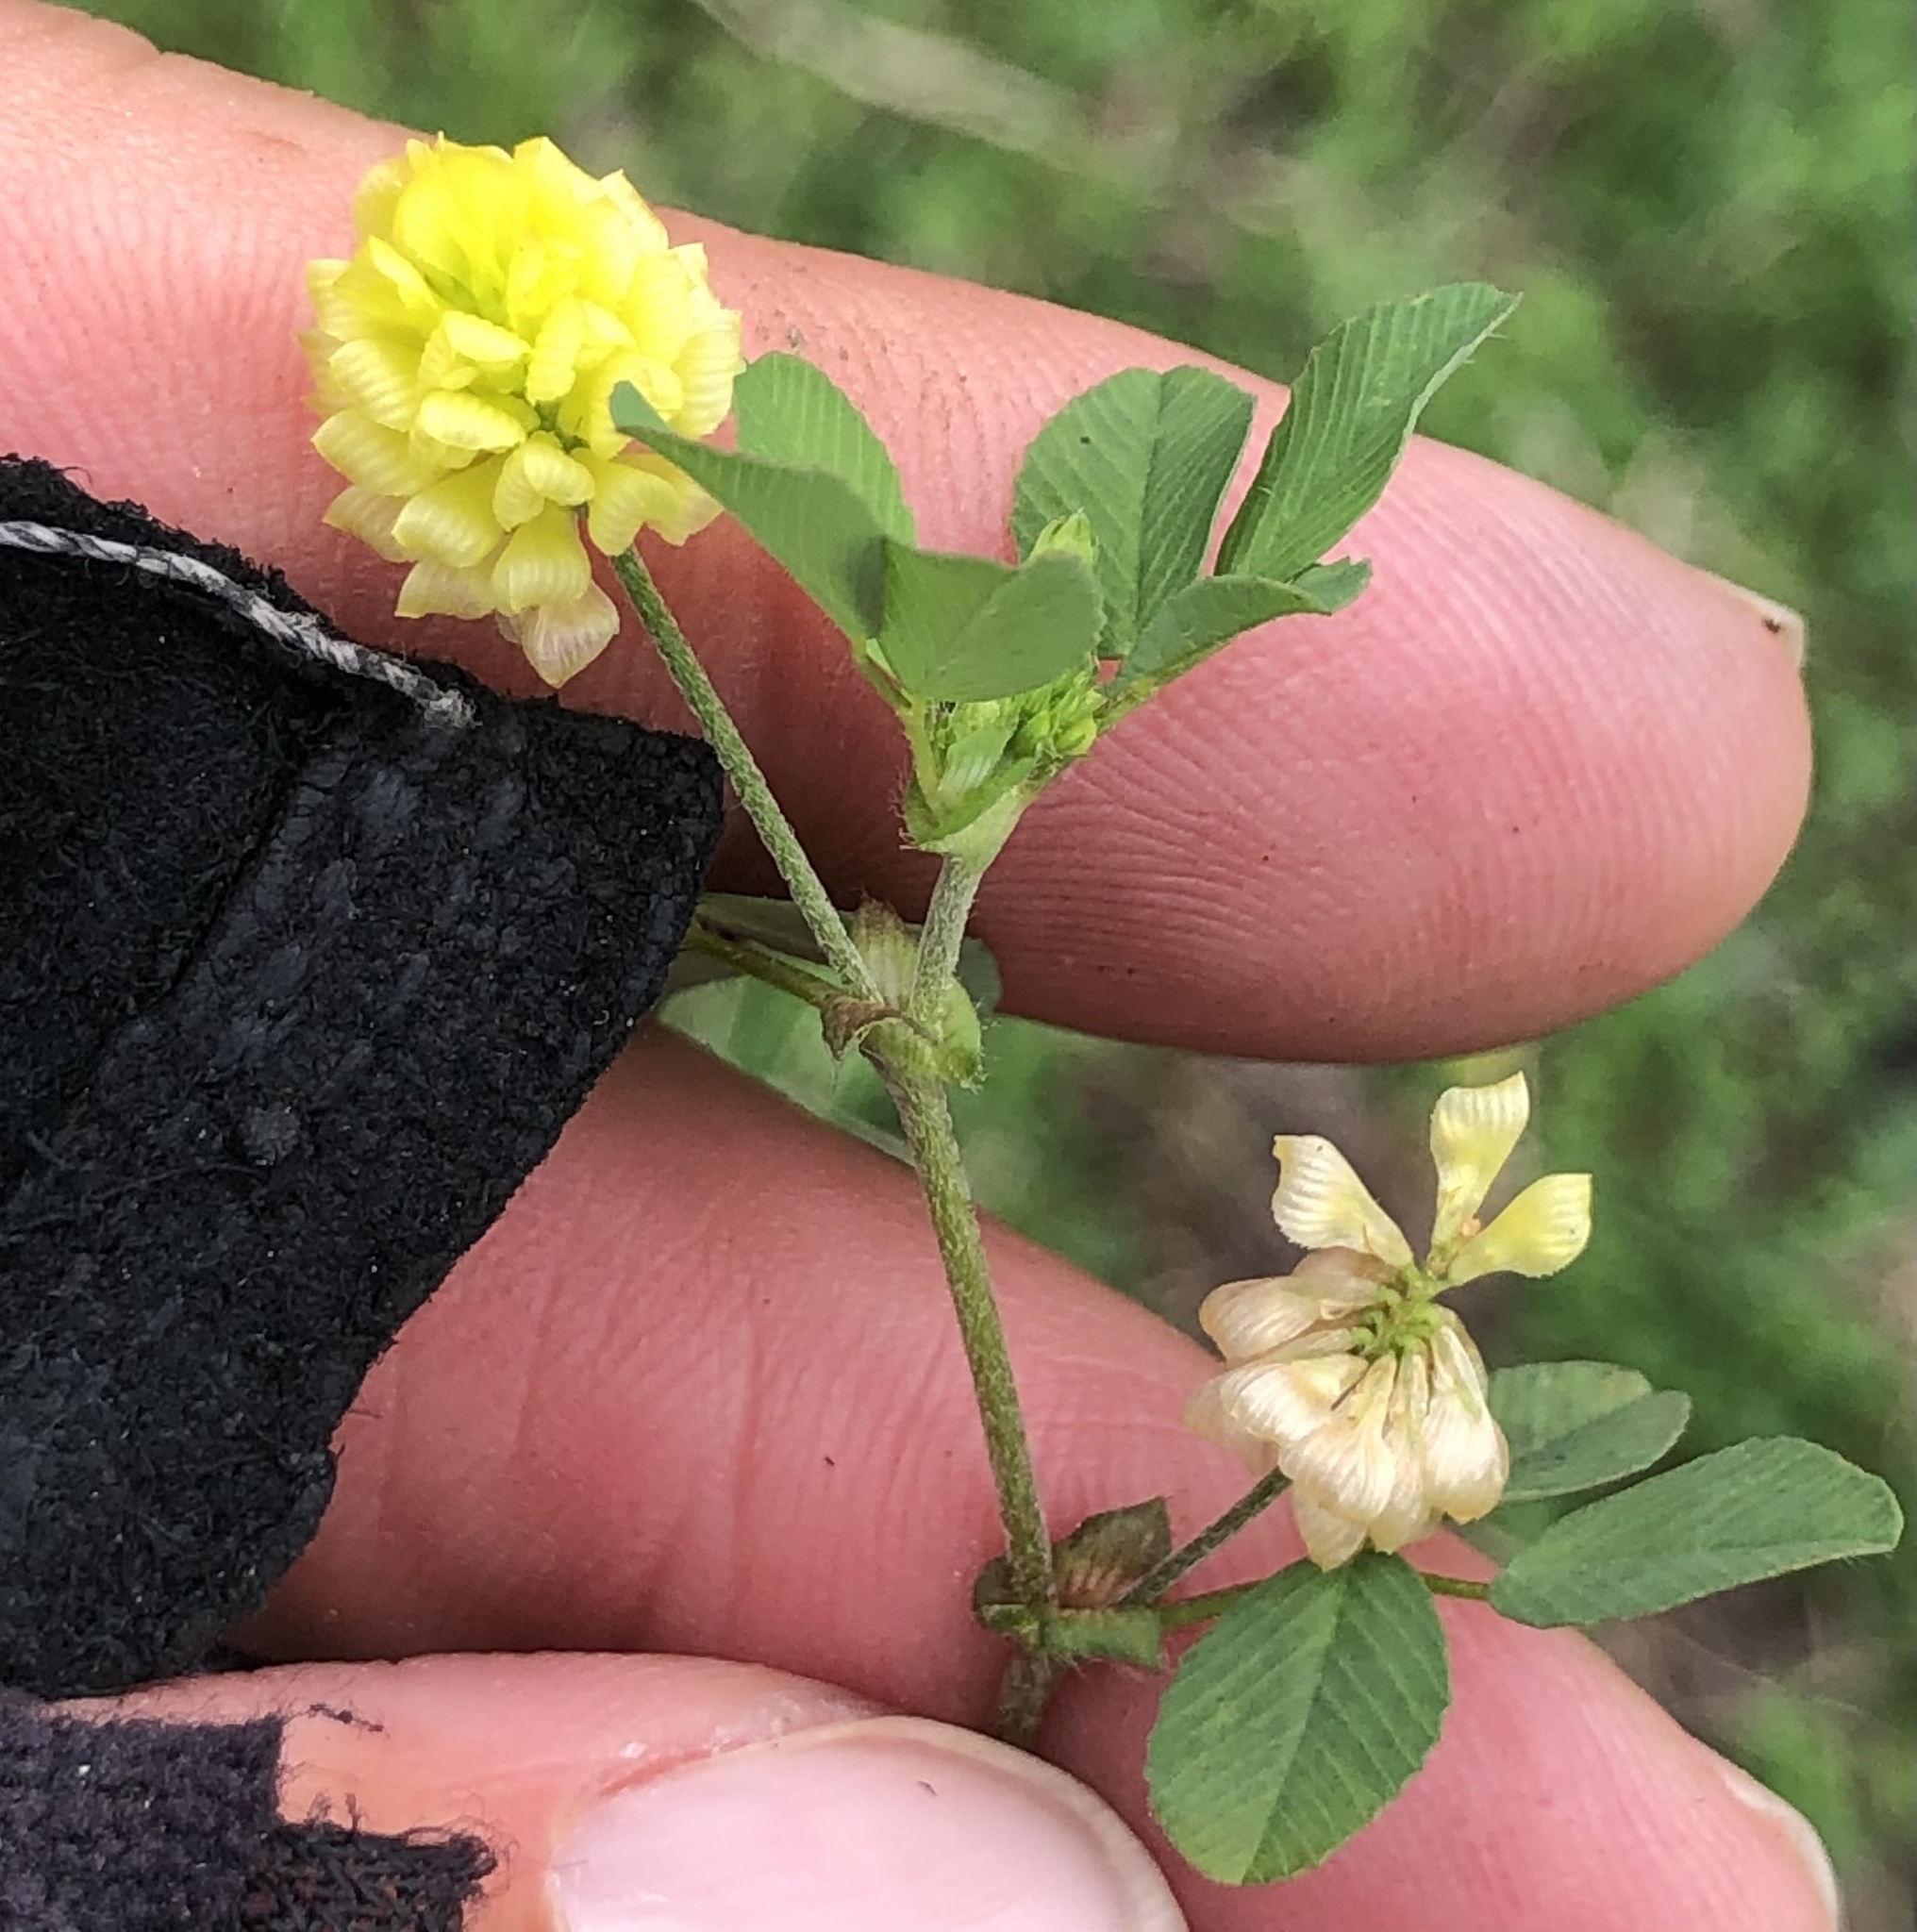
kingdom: Plantae
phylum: Tracheophyta
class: Magnoliopsida
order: Fabales
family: Fabaceae
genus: Trifolium
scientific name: Trifolium campestre
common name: Field clover
